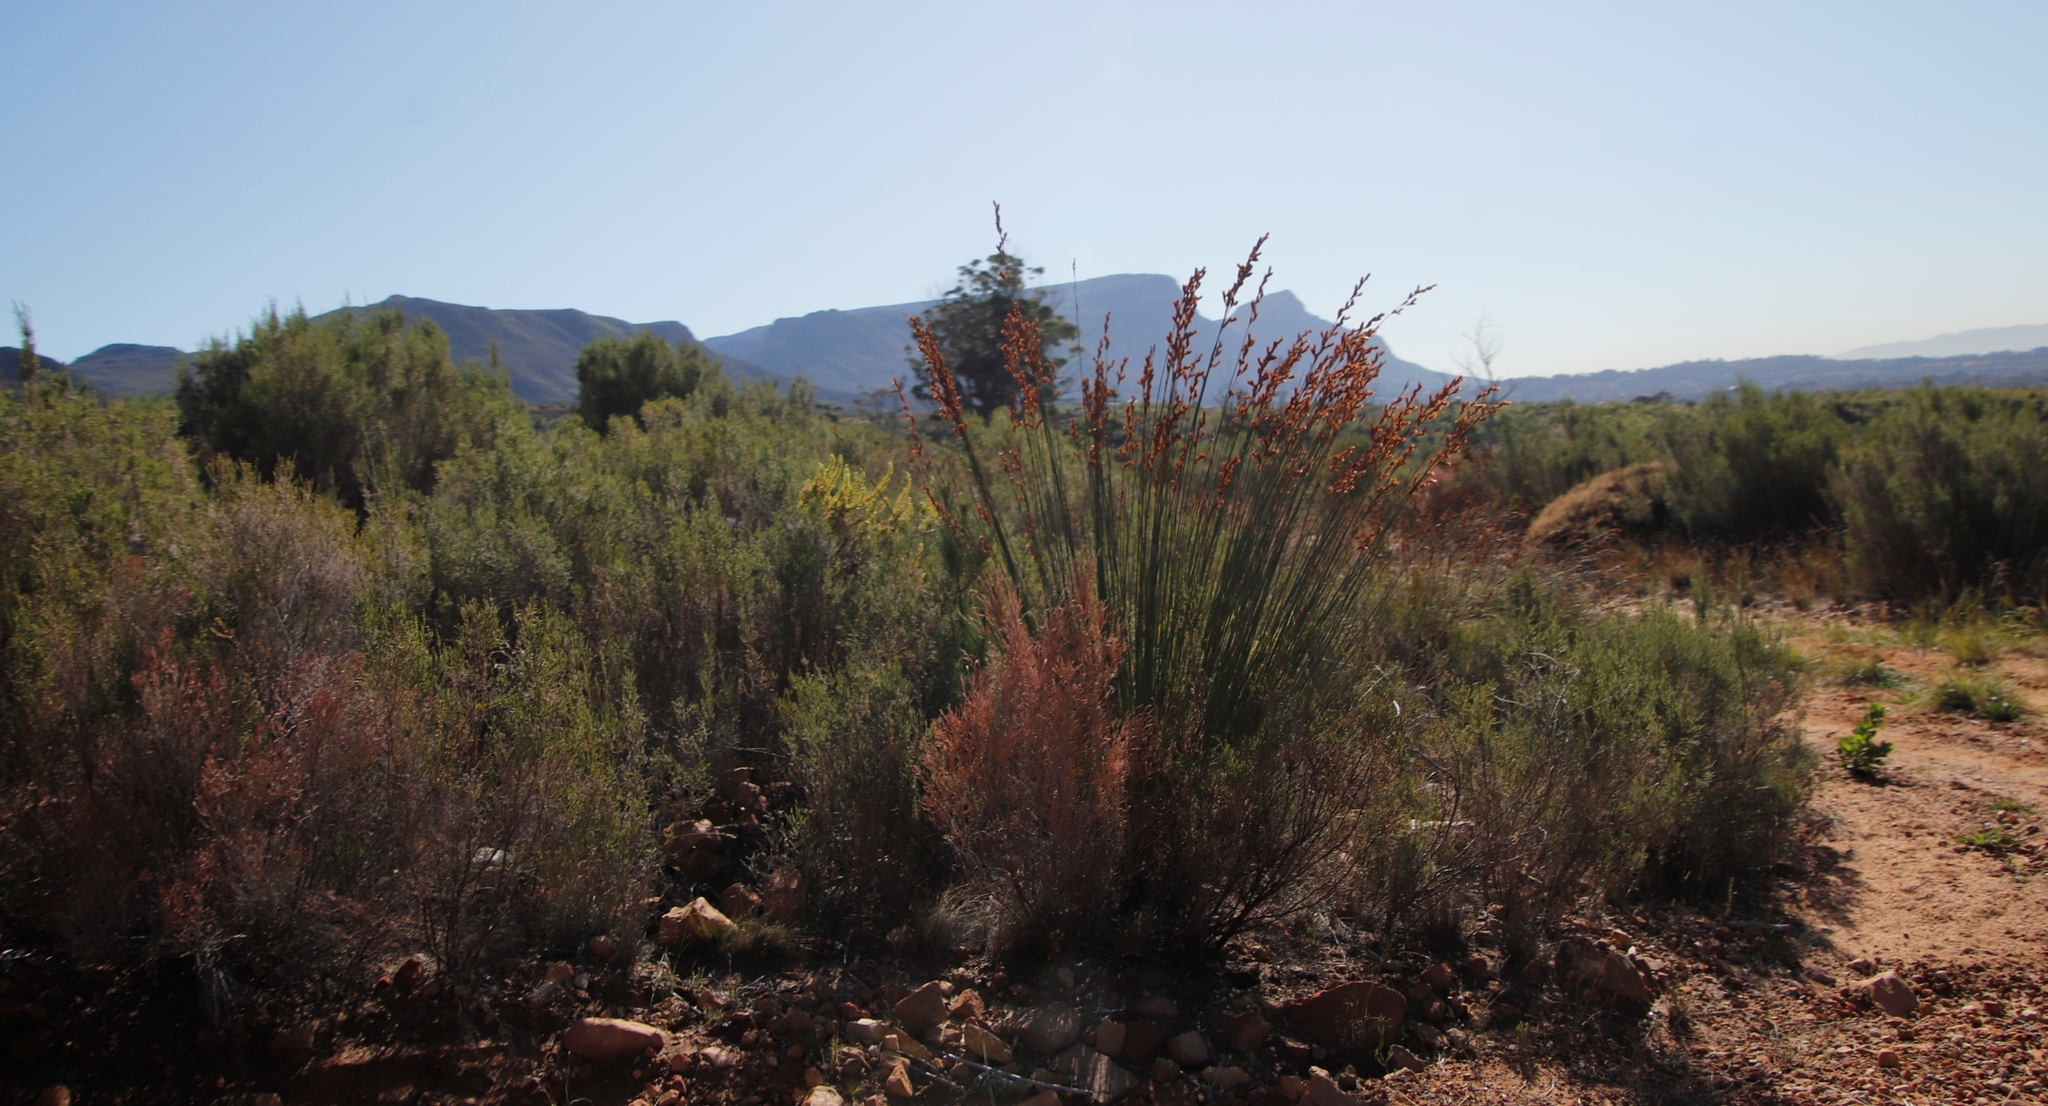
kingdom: Plantae
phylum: Tracheophyta
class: Liliopsida
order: Poales
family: Restionaceae
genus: Thamnochortus
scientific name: Thamnochortus insignis
